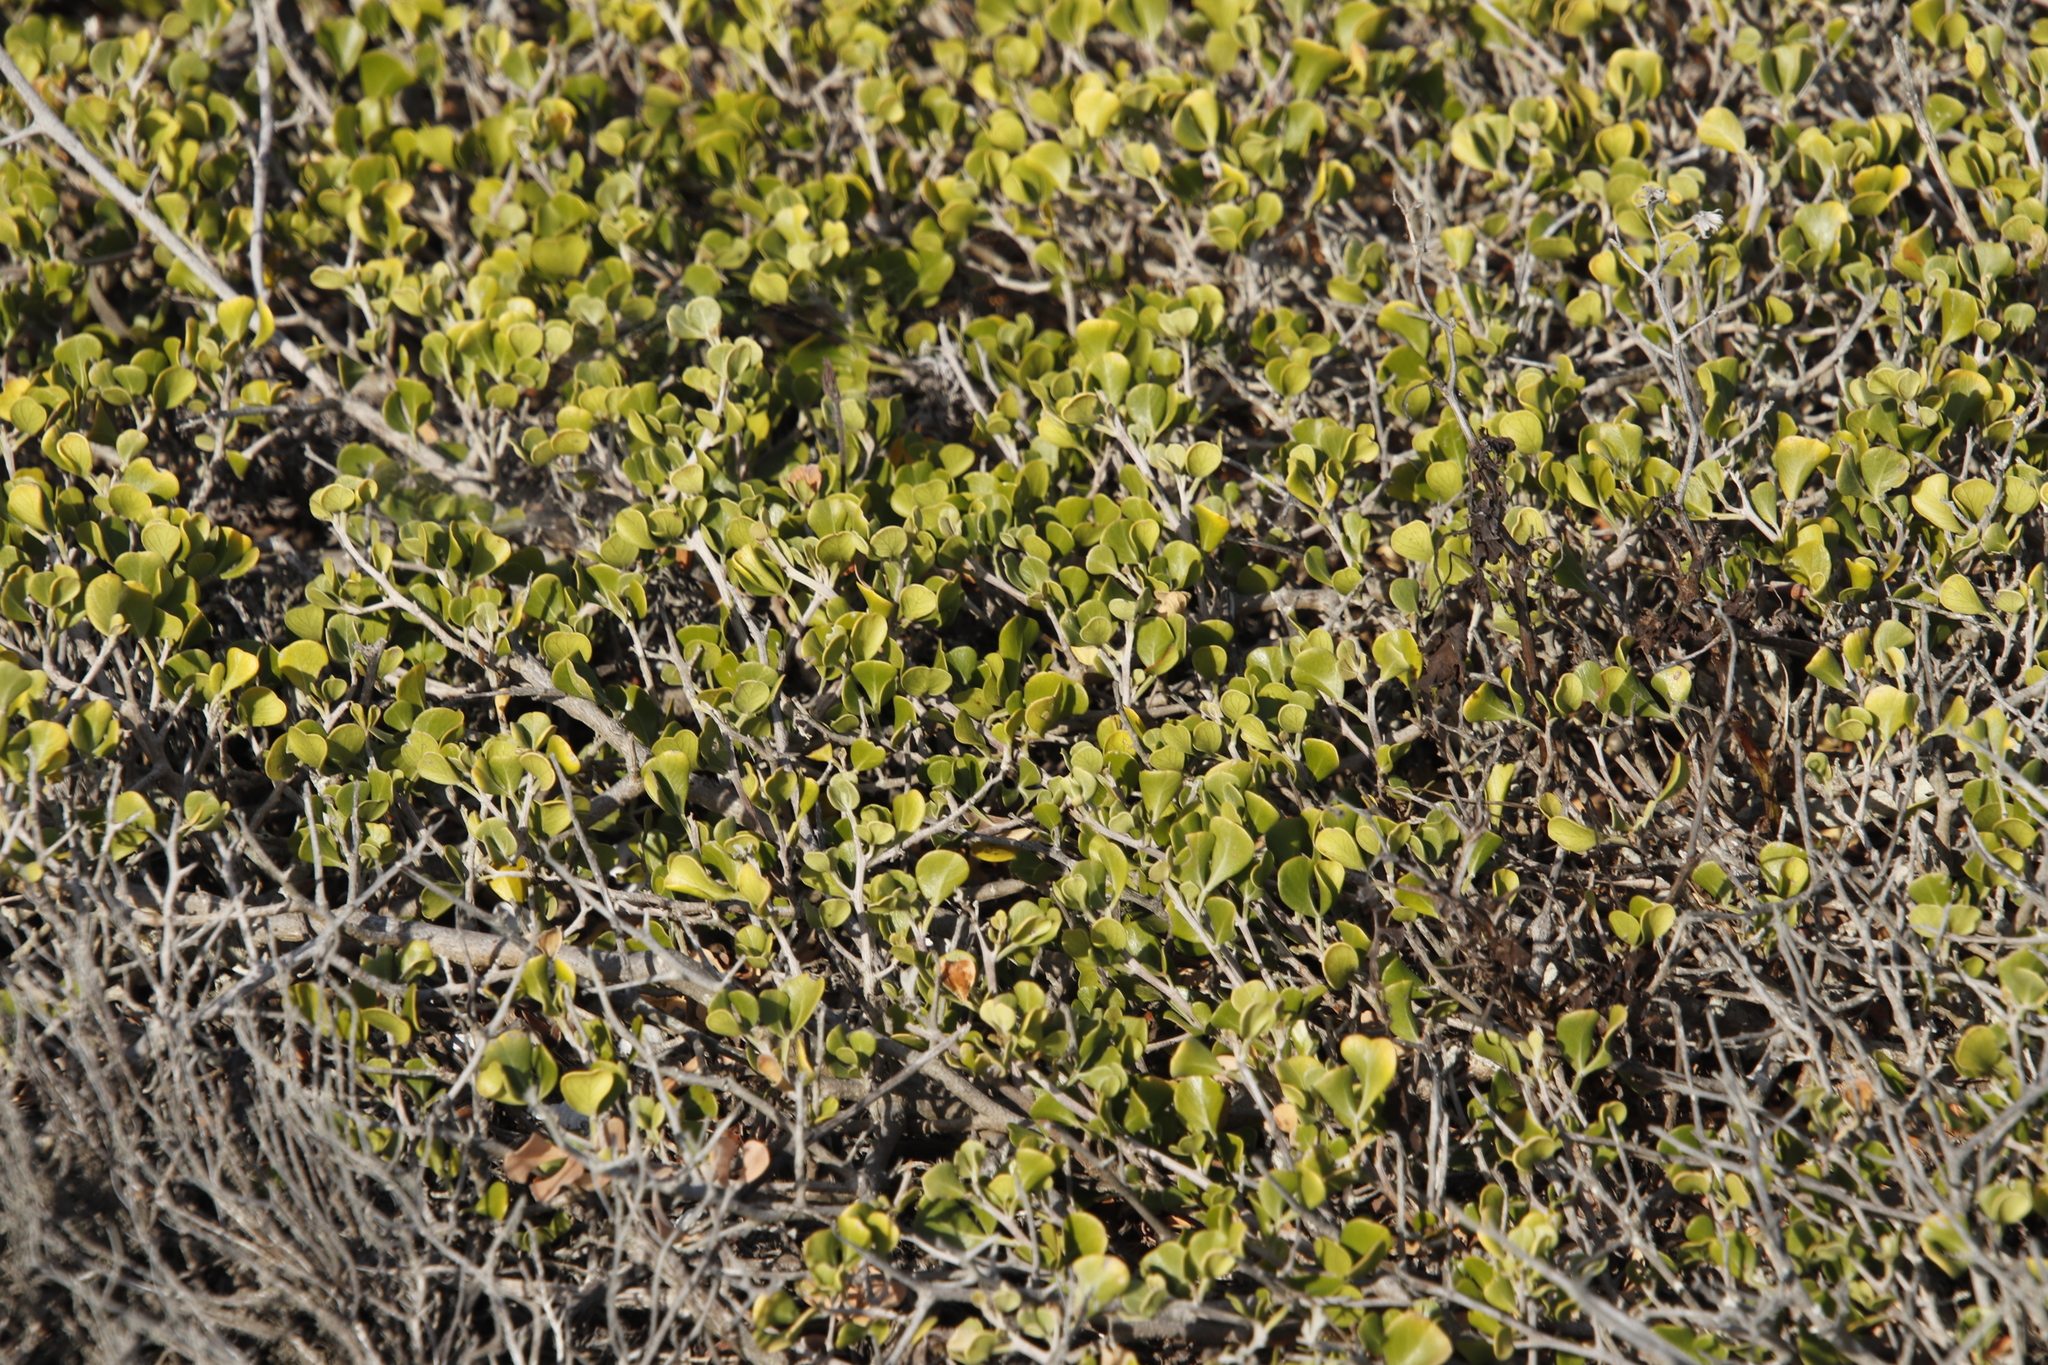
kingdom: Plantae
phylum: Tracheophyta
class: Magnoliopsida
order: Sapindales
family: Anacardiaceae
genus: Searsia
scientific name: Searsia glauca
